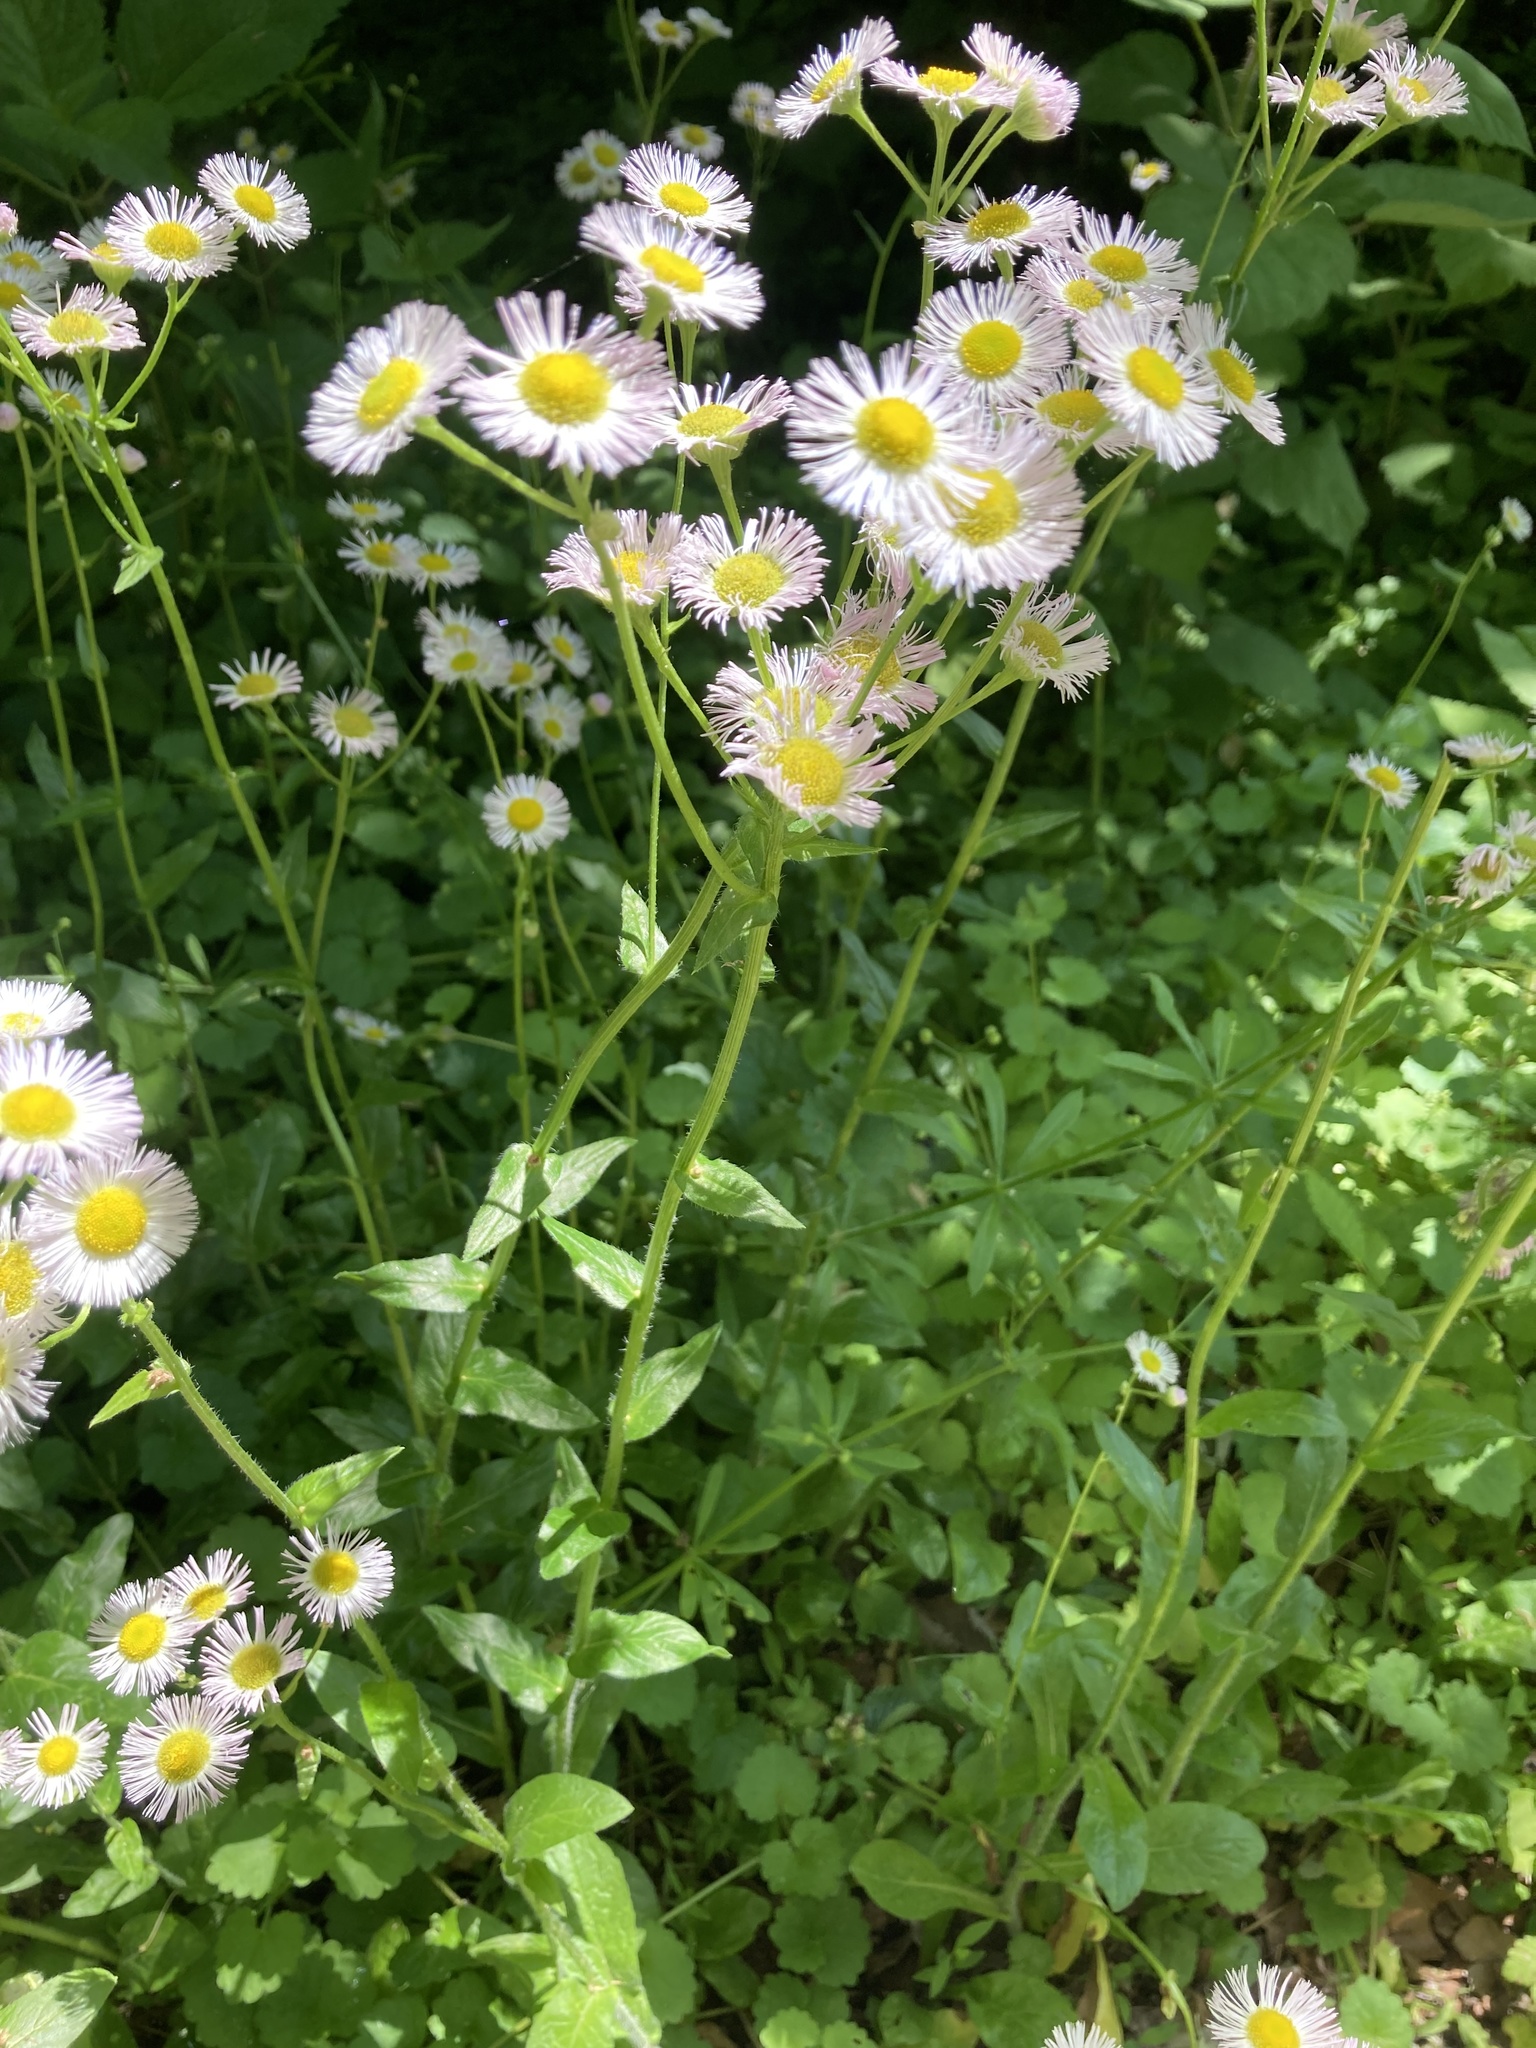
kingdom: Plantae
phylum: Tracheophyta
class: Magnoliopsida
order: Asterales
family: Asteraceae
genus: Erigeron
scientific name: Erigeron philadelphicus
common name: Robin's-plantain
